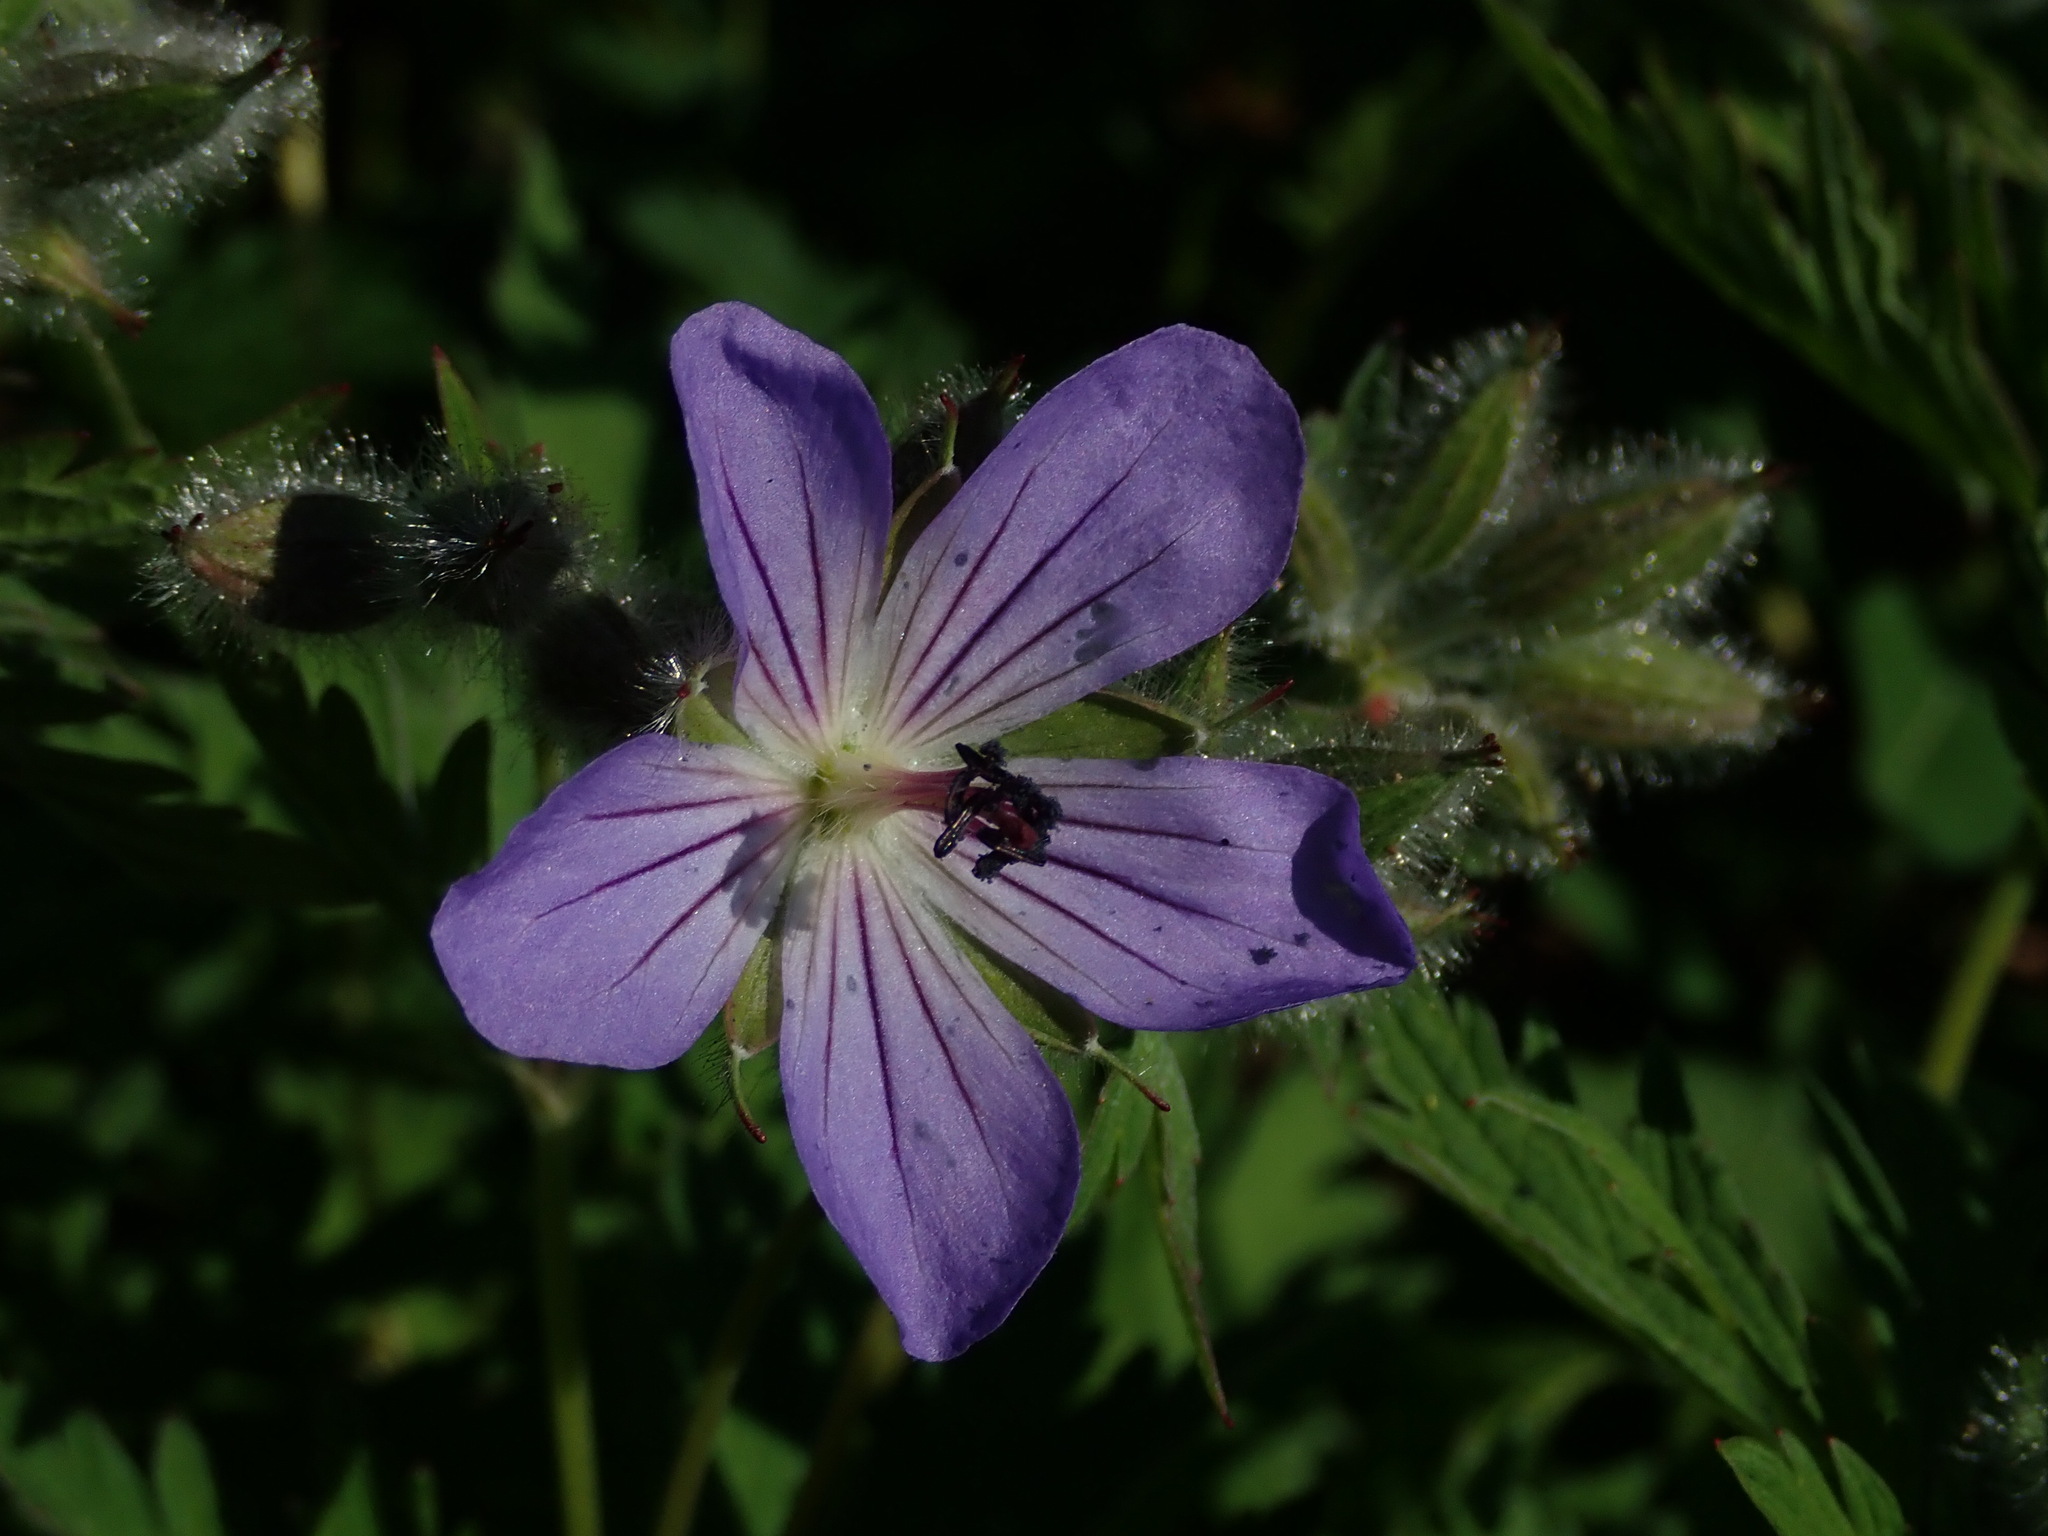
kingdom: Plantae
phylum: Tracheophyta
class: Magnoliopsida
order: Geraniales
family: Geraniaceae
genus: Geranium
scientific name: Geranium erianthum
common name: Northern crane's-bill
